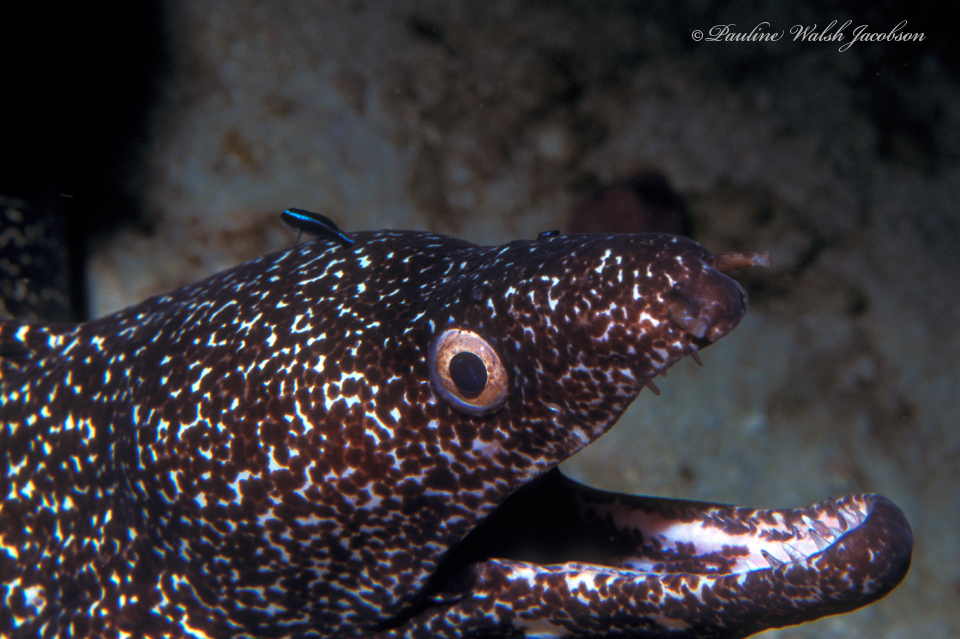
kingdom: Animalia
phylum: Chordata
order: Anguilliformes
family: Muraenidae
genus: Gymnothorax
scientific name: Gymnothorax moringa
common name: Spotted moray
